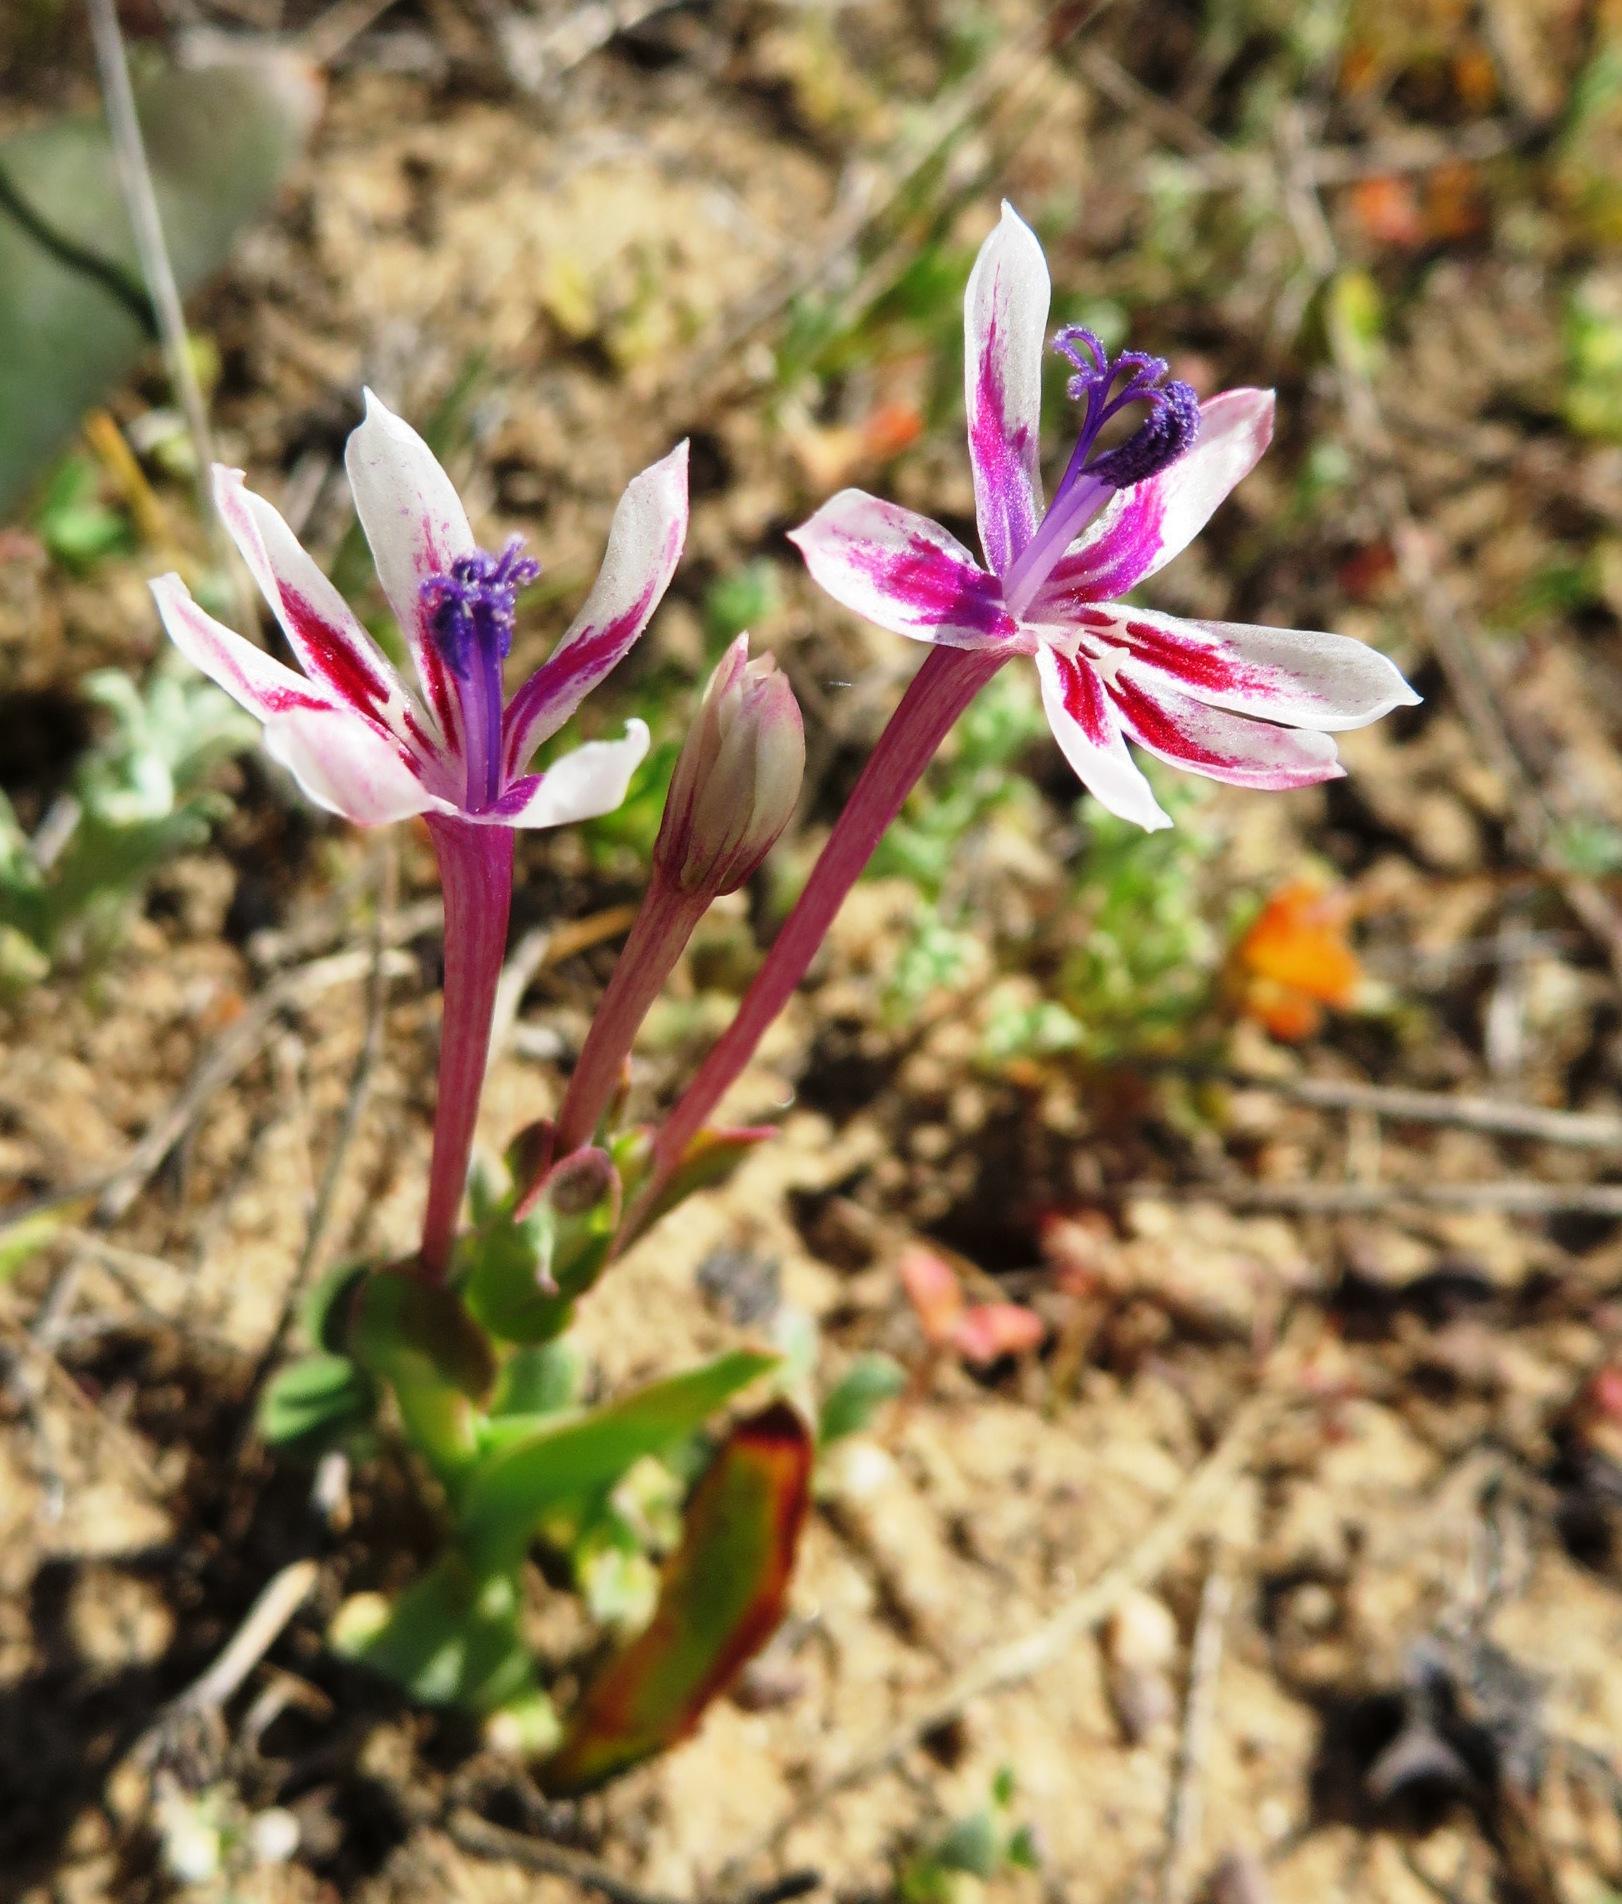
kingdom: Plantae
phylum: Tracheophyta
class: Liliopsida
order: Asparagales
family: Iridaceae
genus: Lapeirousia
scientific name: Lapeirousia jacquinii
